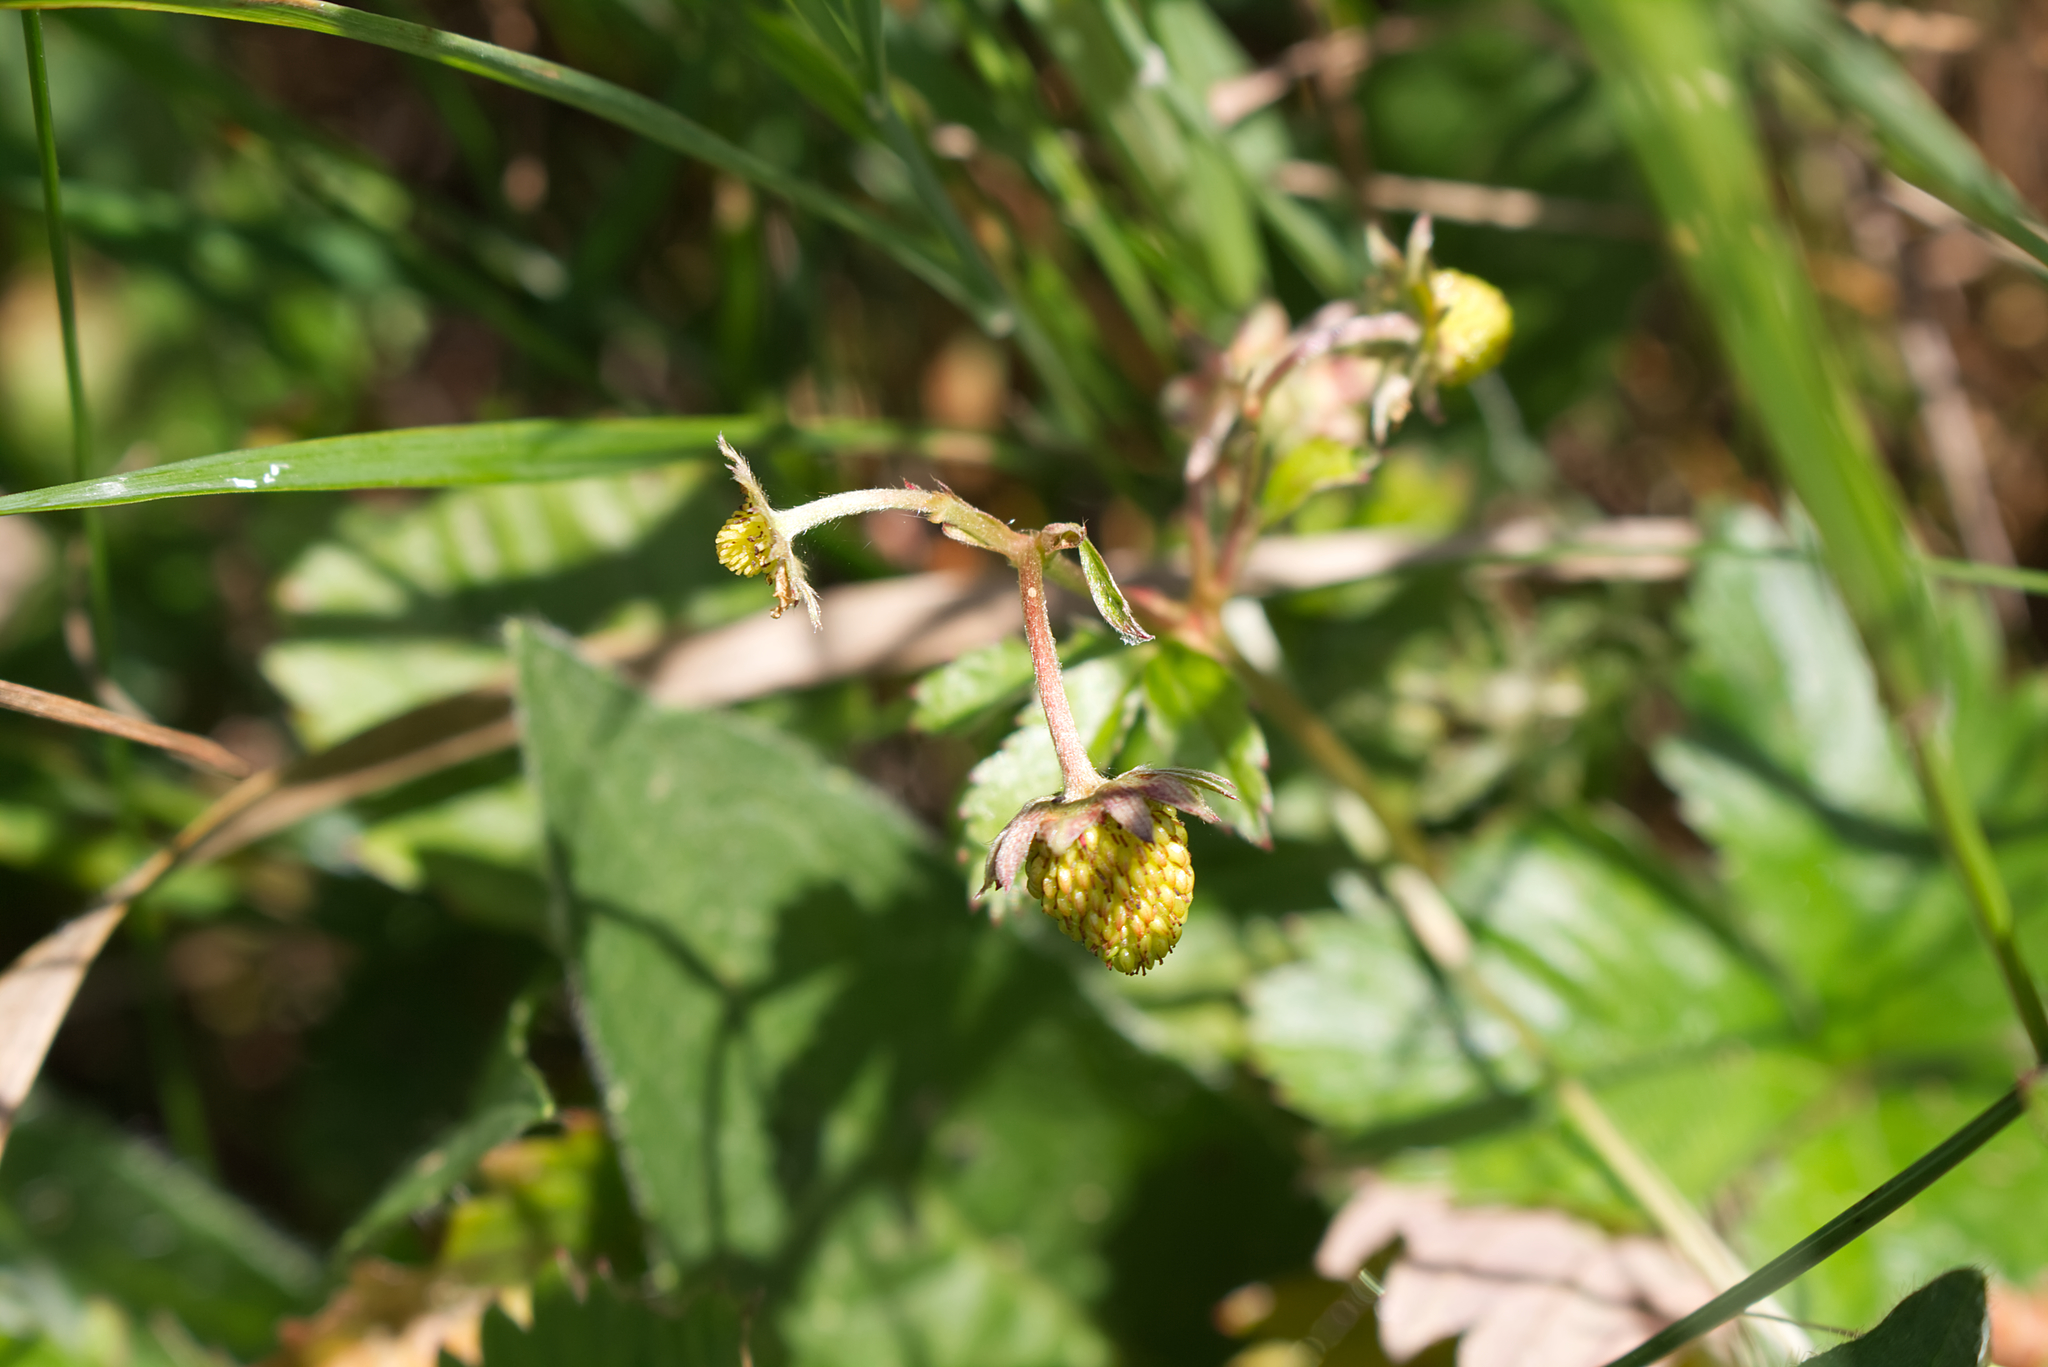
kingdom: Plantae
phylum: Tracheophyta
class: Magnoliopsida
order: Rosales
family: Rosaceae
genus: Fragaria
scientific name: Fragaria vesca
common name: Wild strawberry
